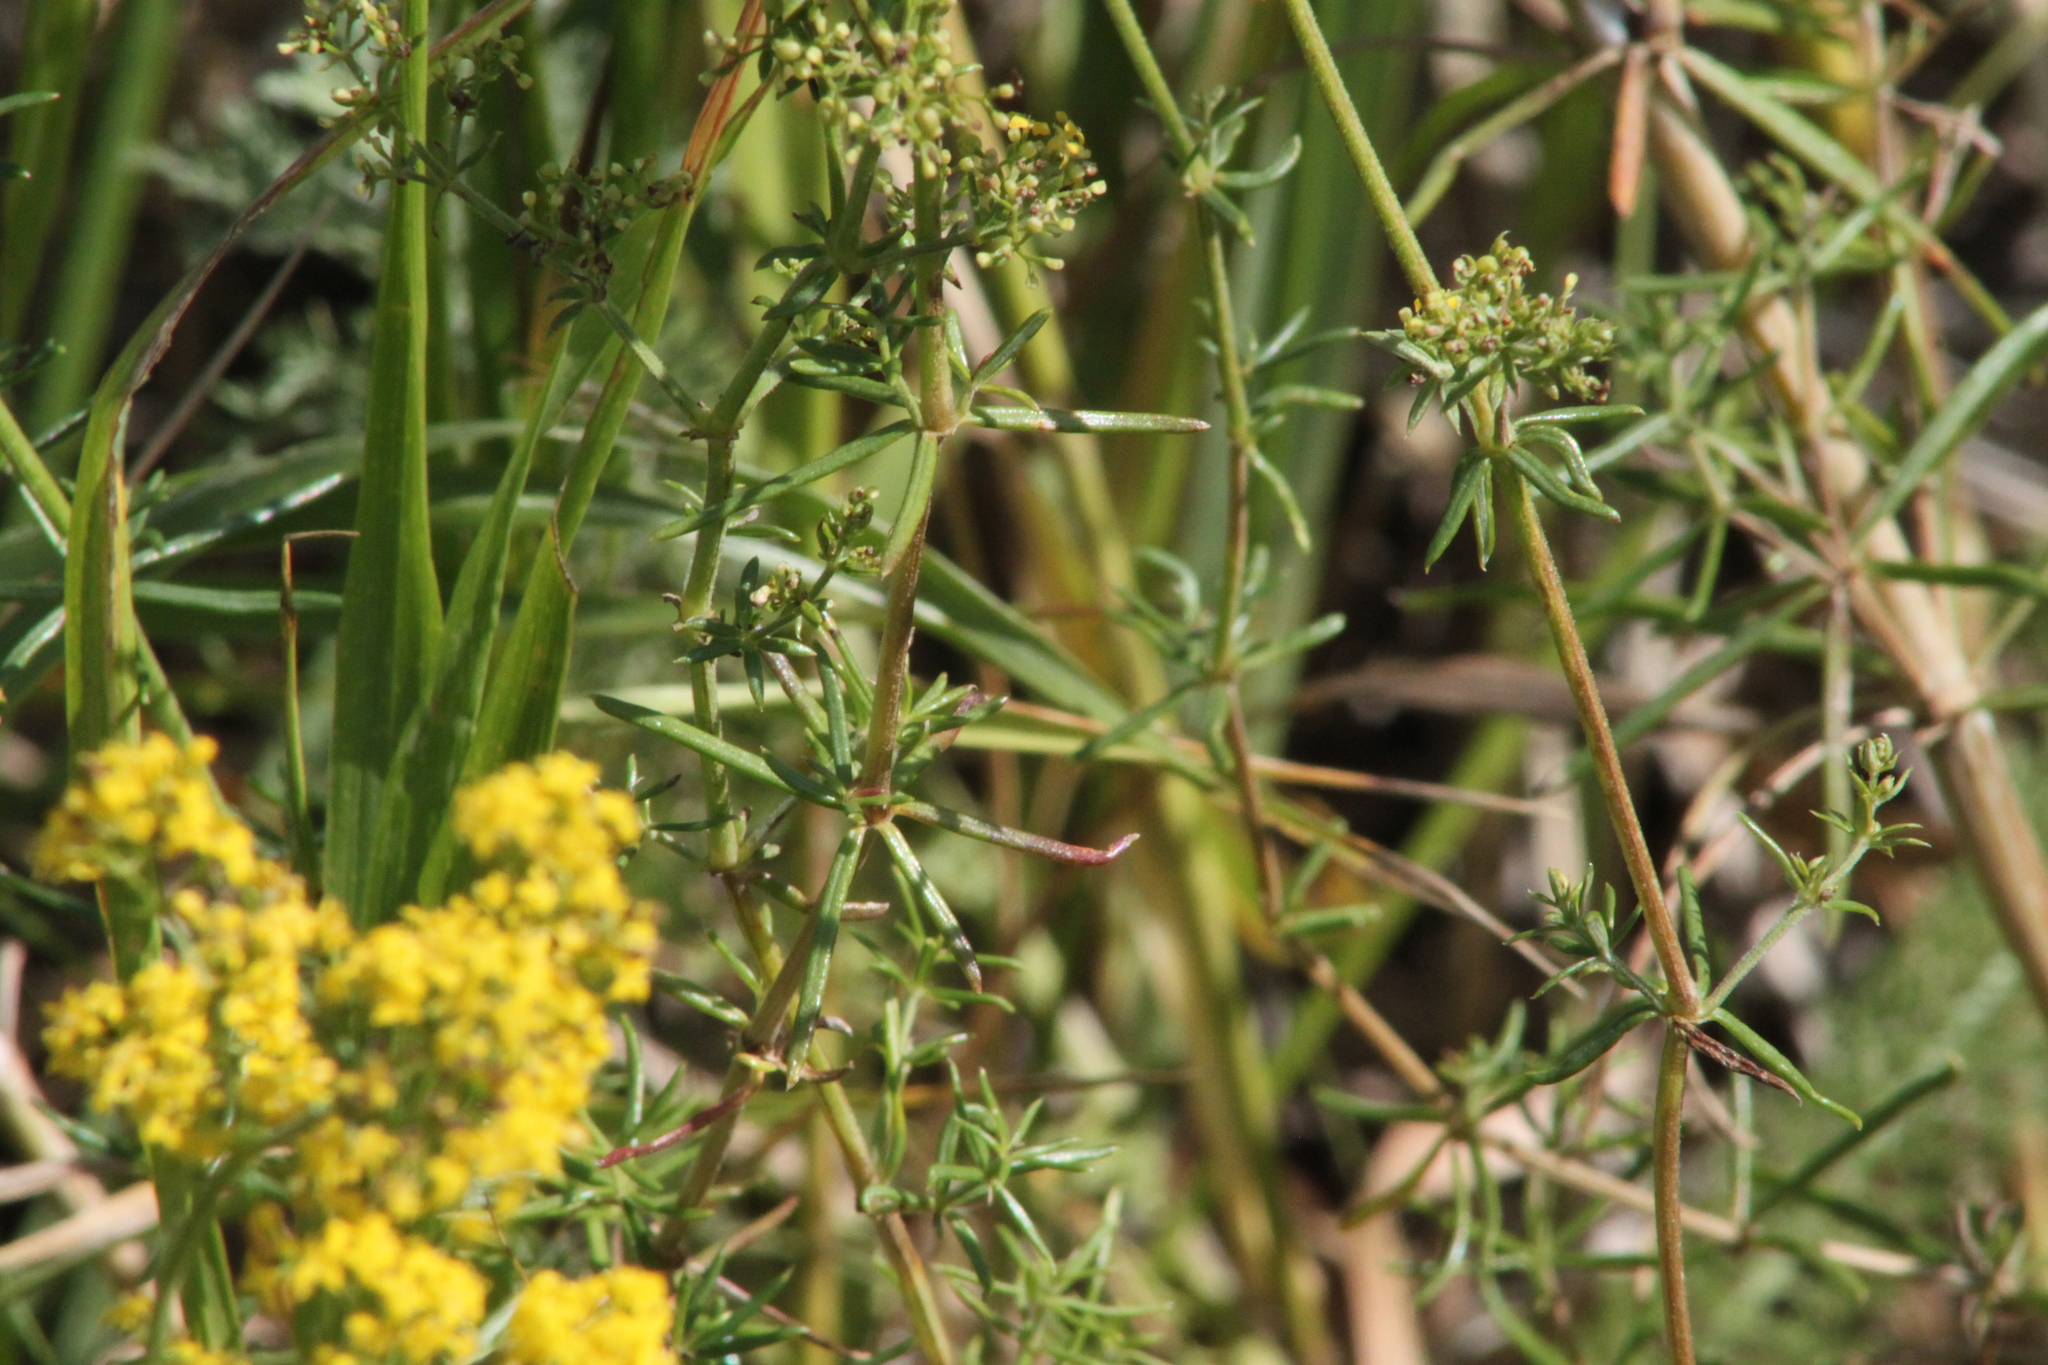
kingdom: Plantae
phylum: Tracheophyta
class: Magnoliopsida
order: Gentianales
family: Rubiaceae
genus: Galium
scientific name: Galium verum
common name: Lady's bedstraw
